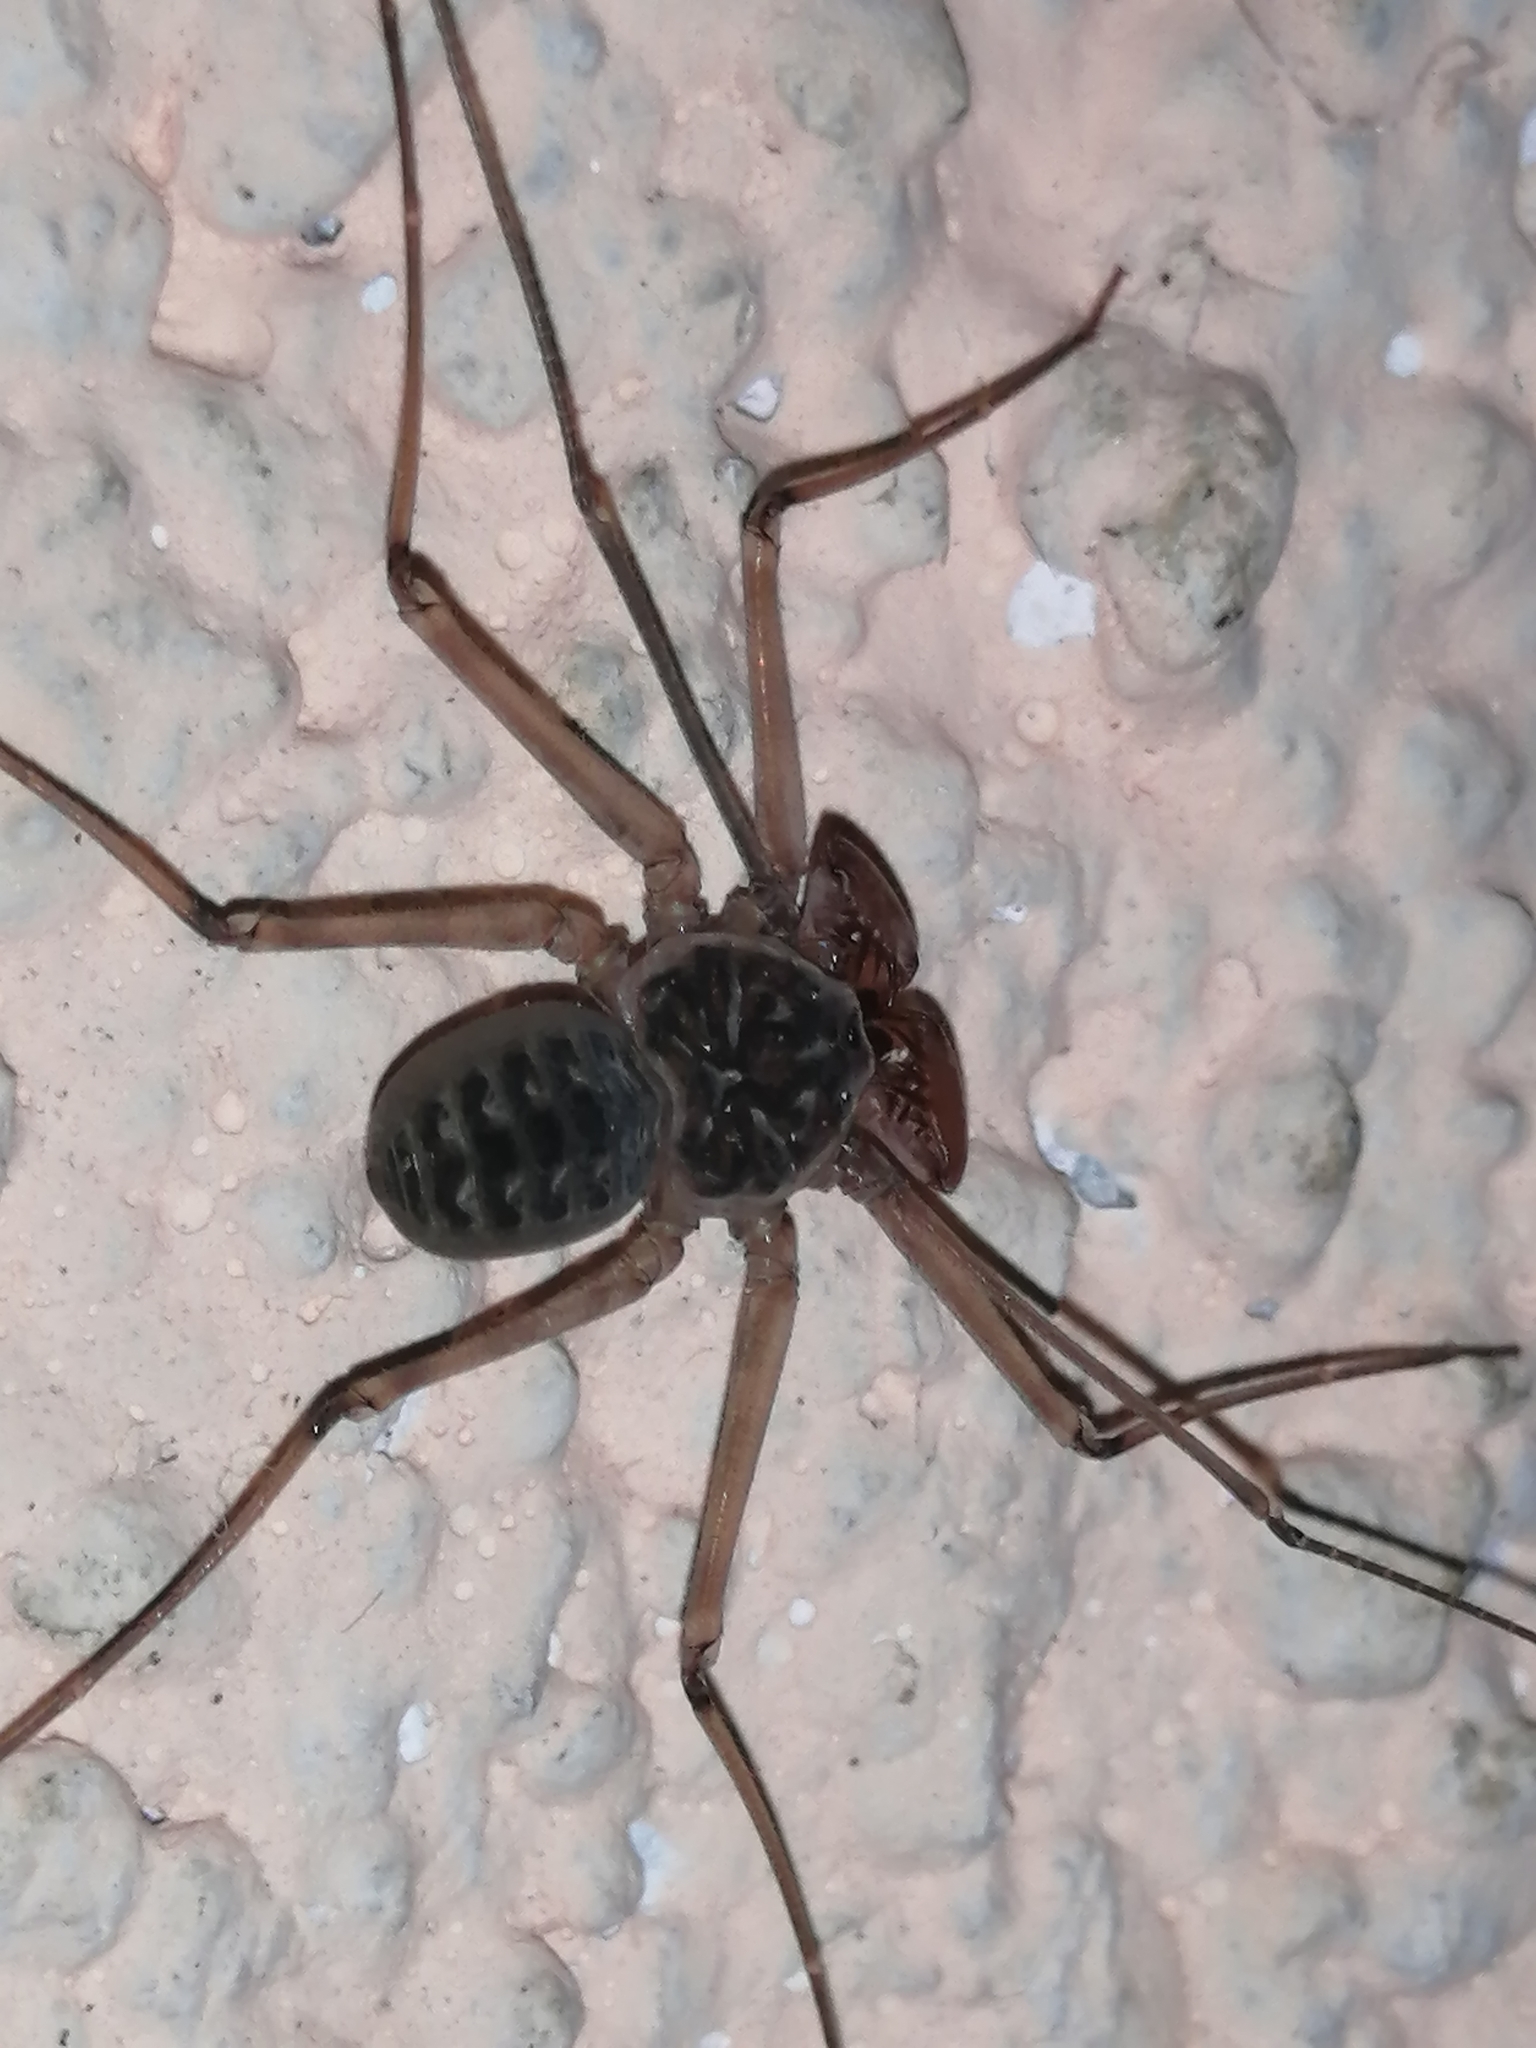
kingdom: Animalia
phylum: Arthropoda
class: Arachnida
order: Amblypygi
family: Phrynidae
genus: Phrynus
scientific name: Phrynus parvulus
